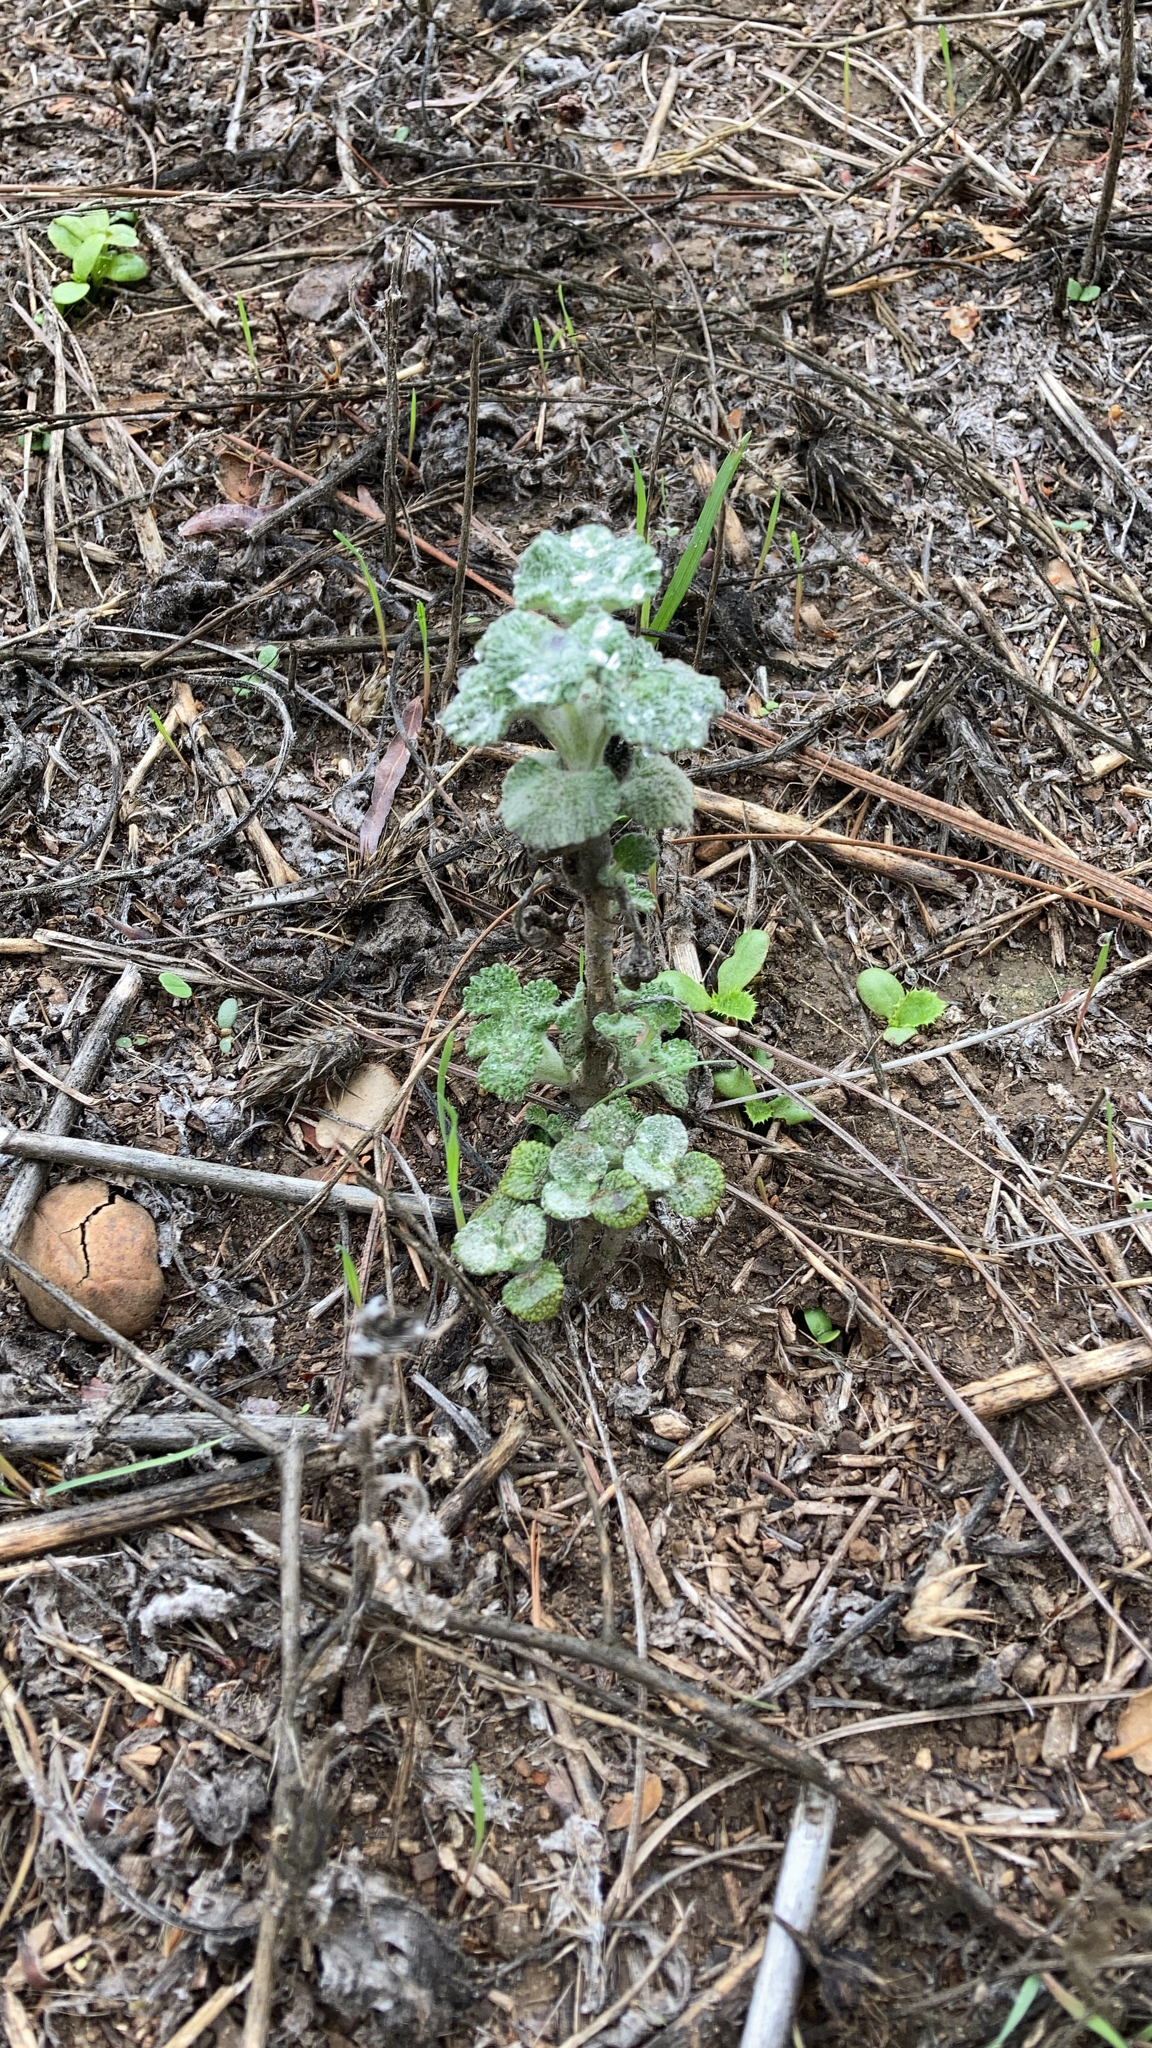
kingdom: Plantae
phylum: Tracheophyta
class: Magnoliopsida
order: Lamiales
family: Lamiaceae
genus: Marrubium
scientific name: Marrubium vulgare
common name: Horehound
